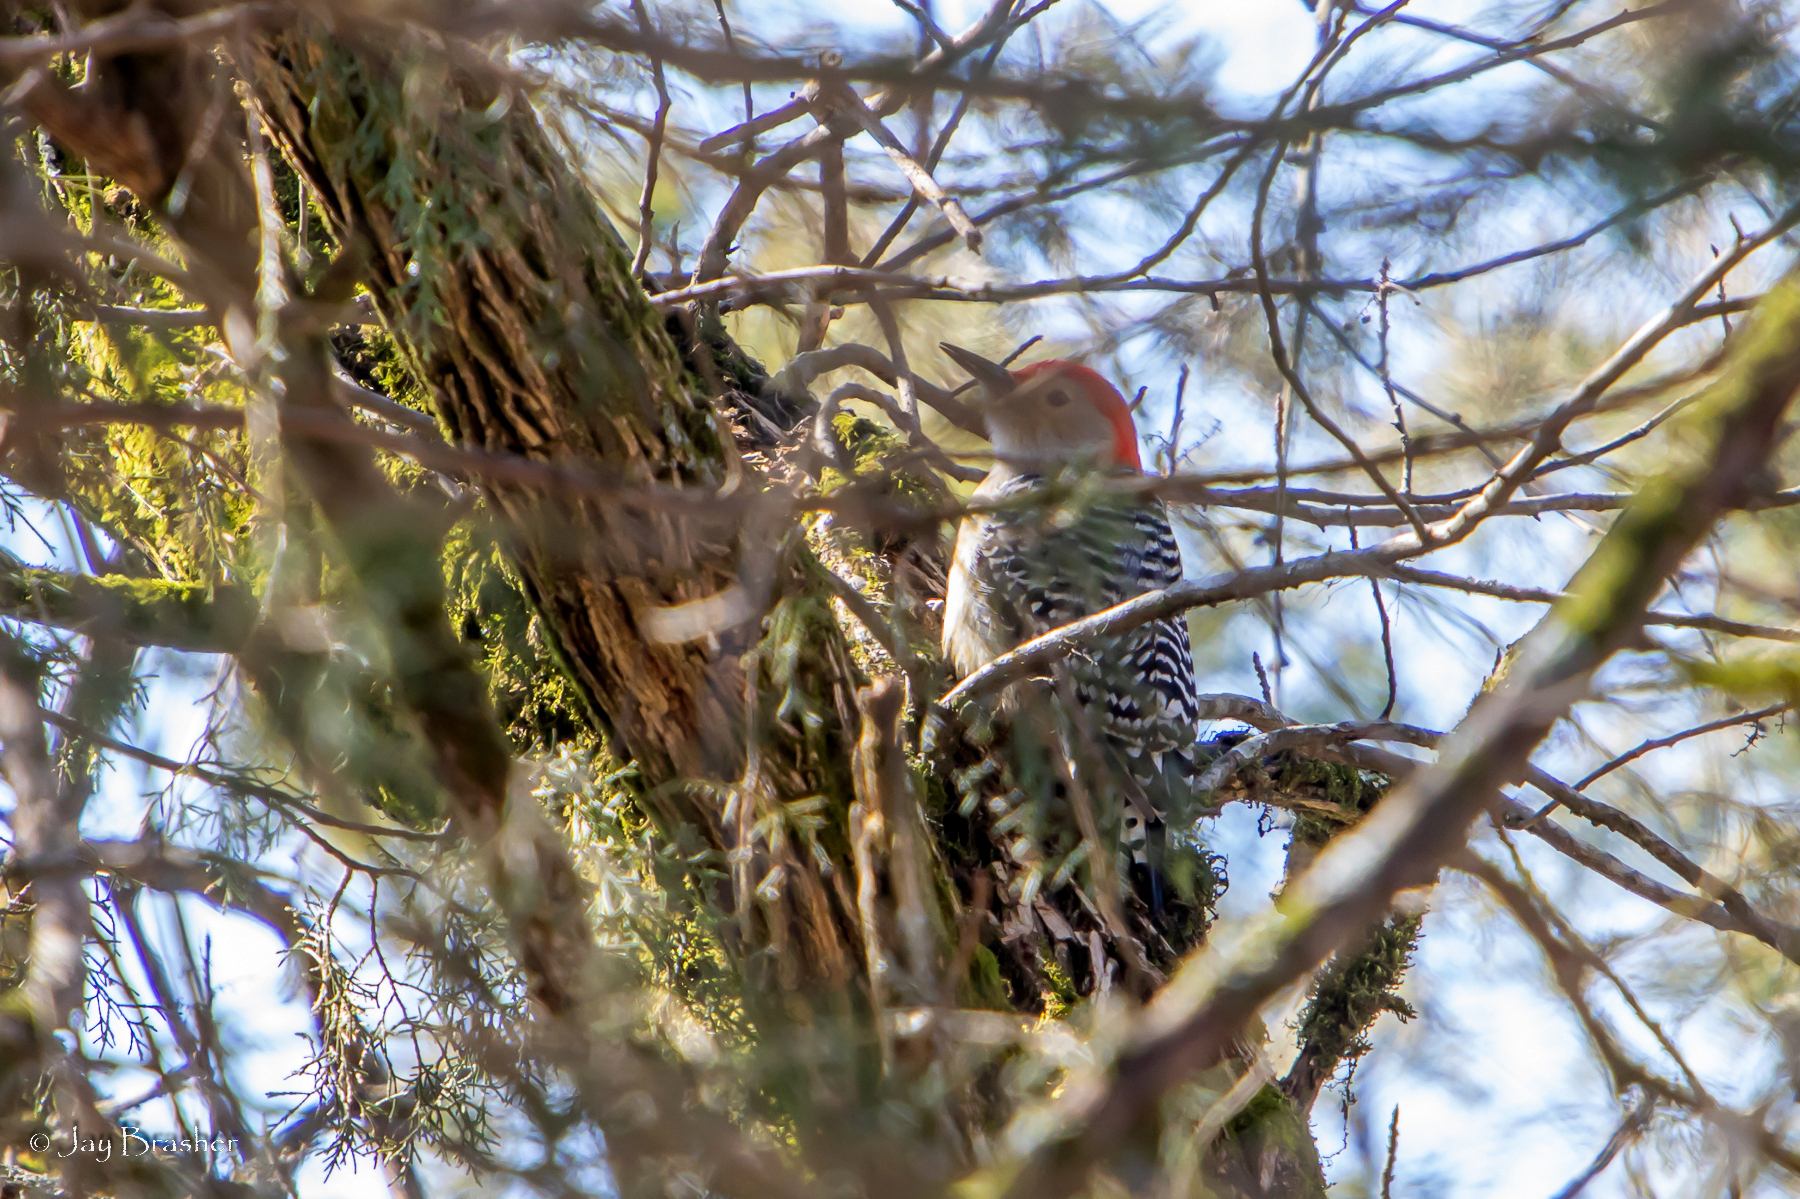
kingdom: Animalia
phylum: Chordata
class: Aves
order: Piciformes
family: Picidae
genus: Melanerpes
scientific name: Melanerpes carolinus
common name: Red-bellied woodpecker
